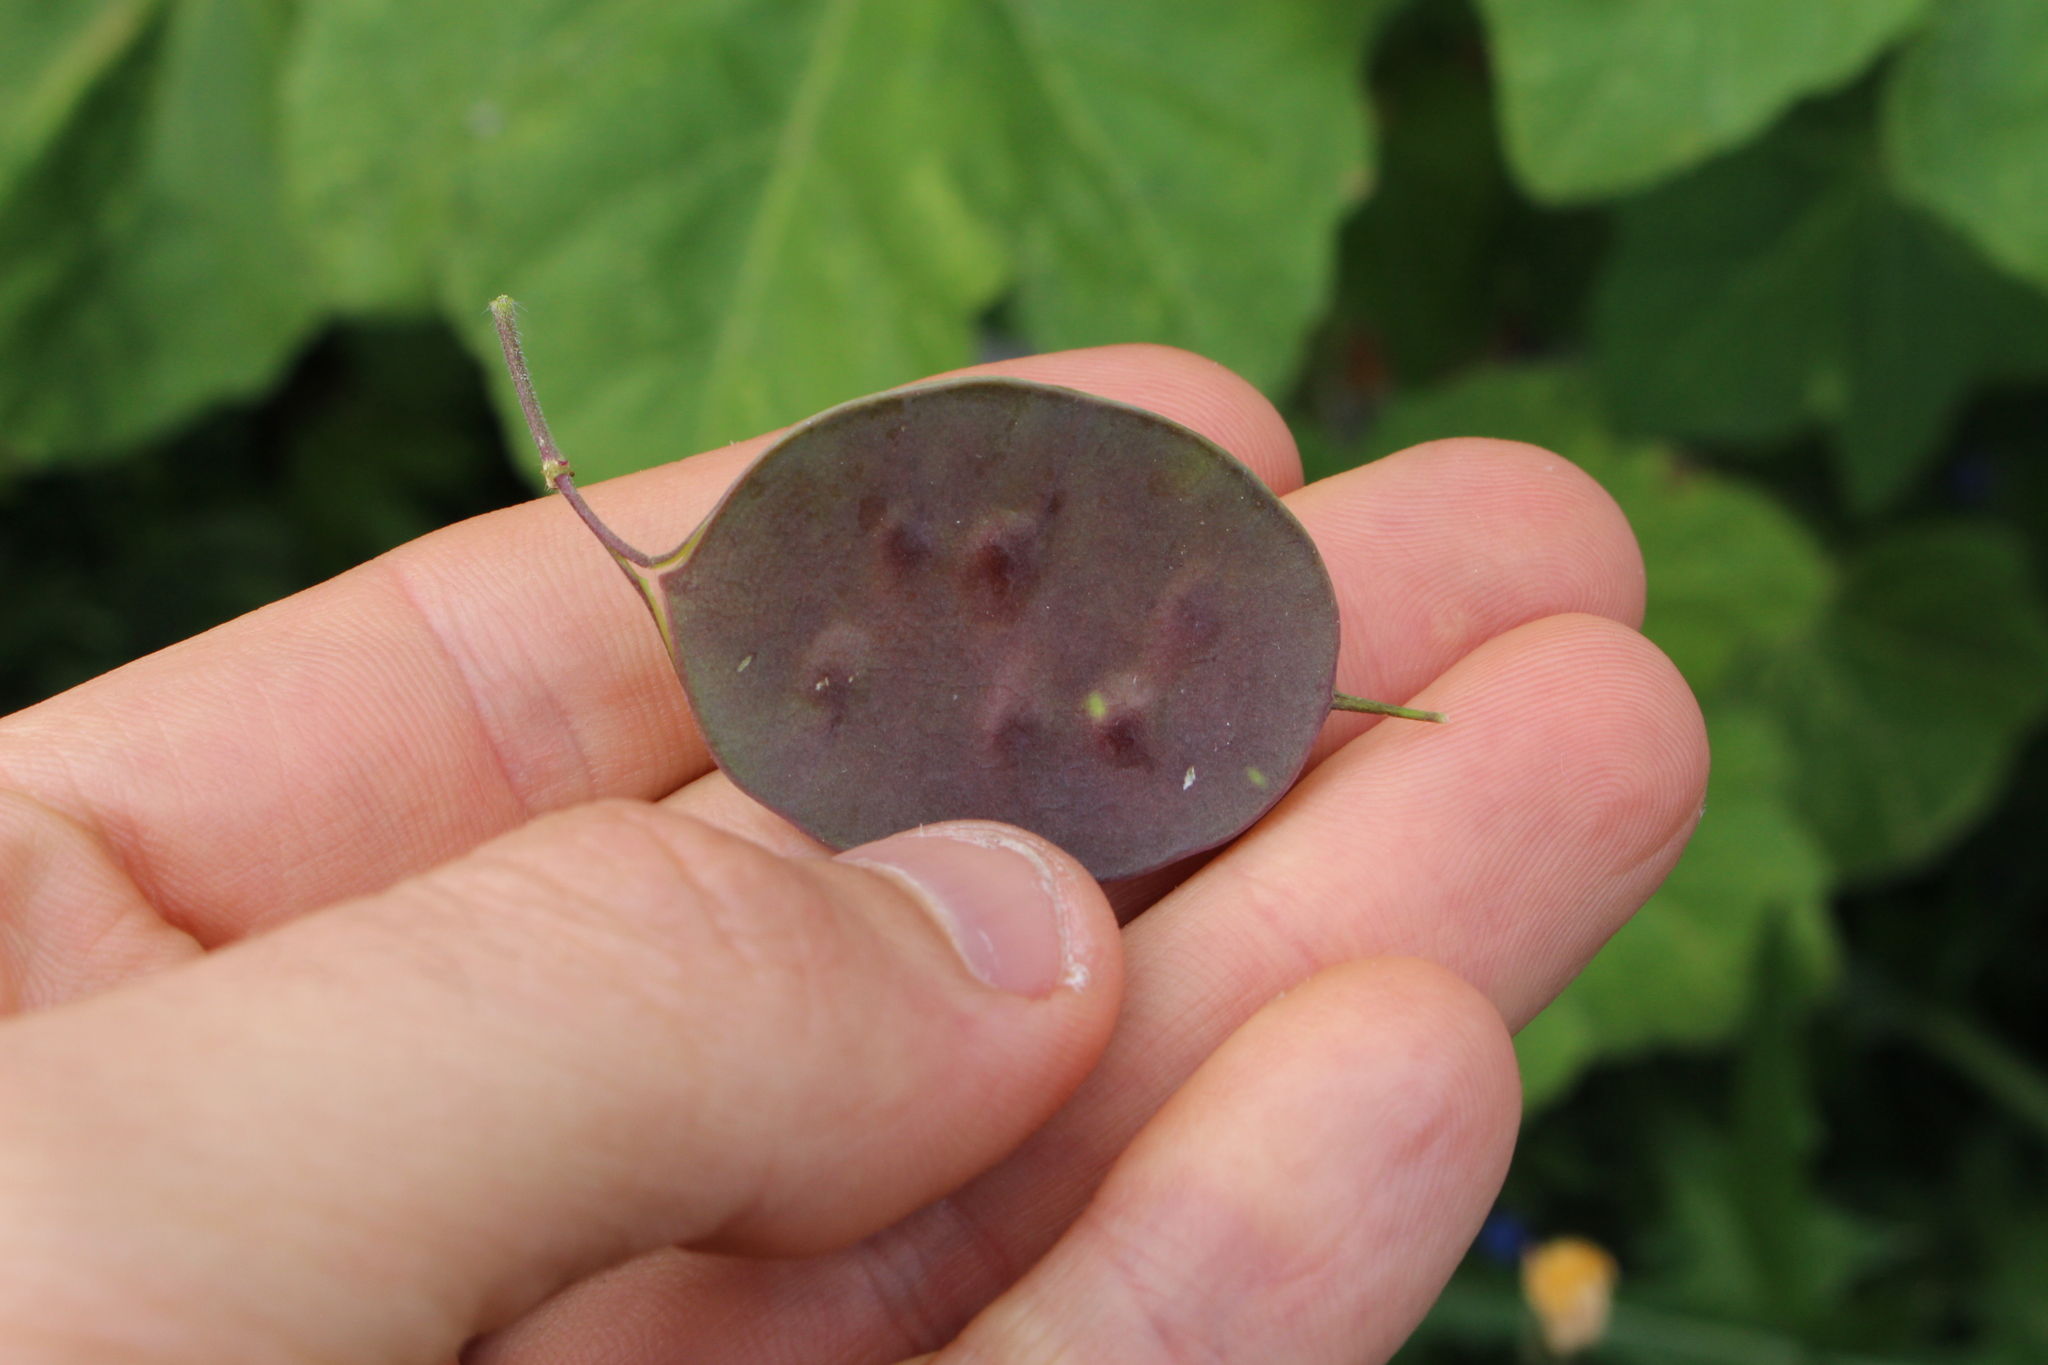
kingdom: Plantae
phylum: Tracheophyta
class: Magnoliopsida
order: Brassicales
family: Brassicaceae
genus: Lunaria
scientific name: Lunaria annua
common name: Honesty
